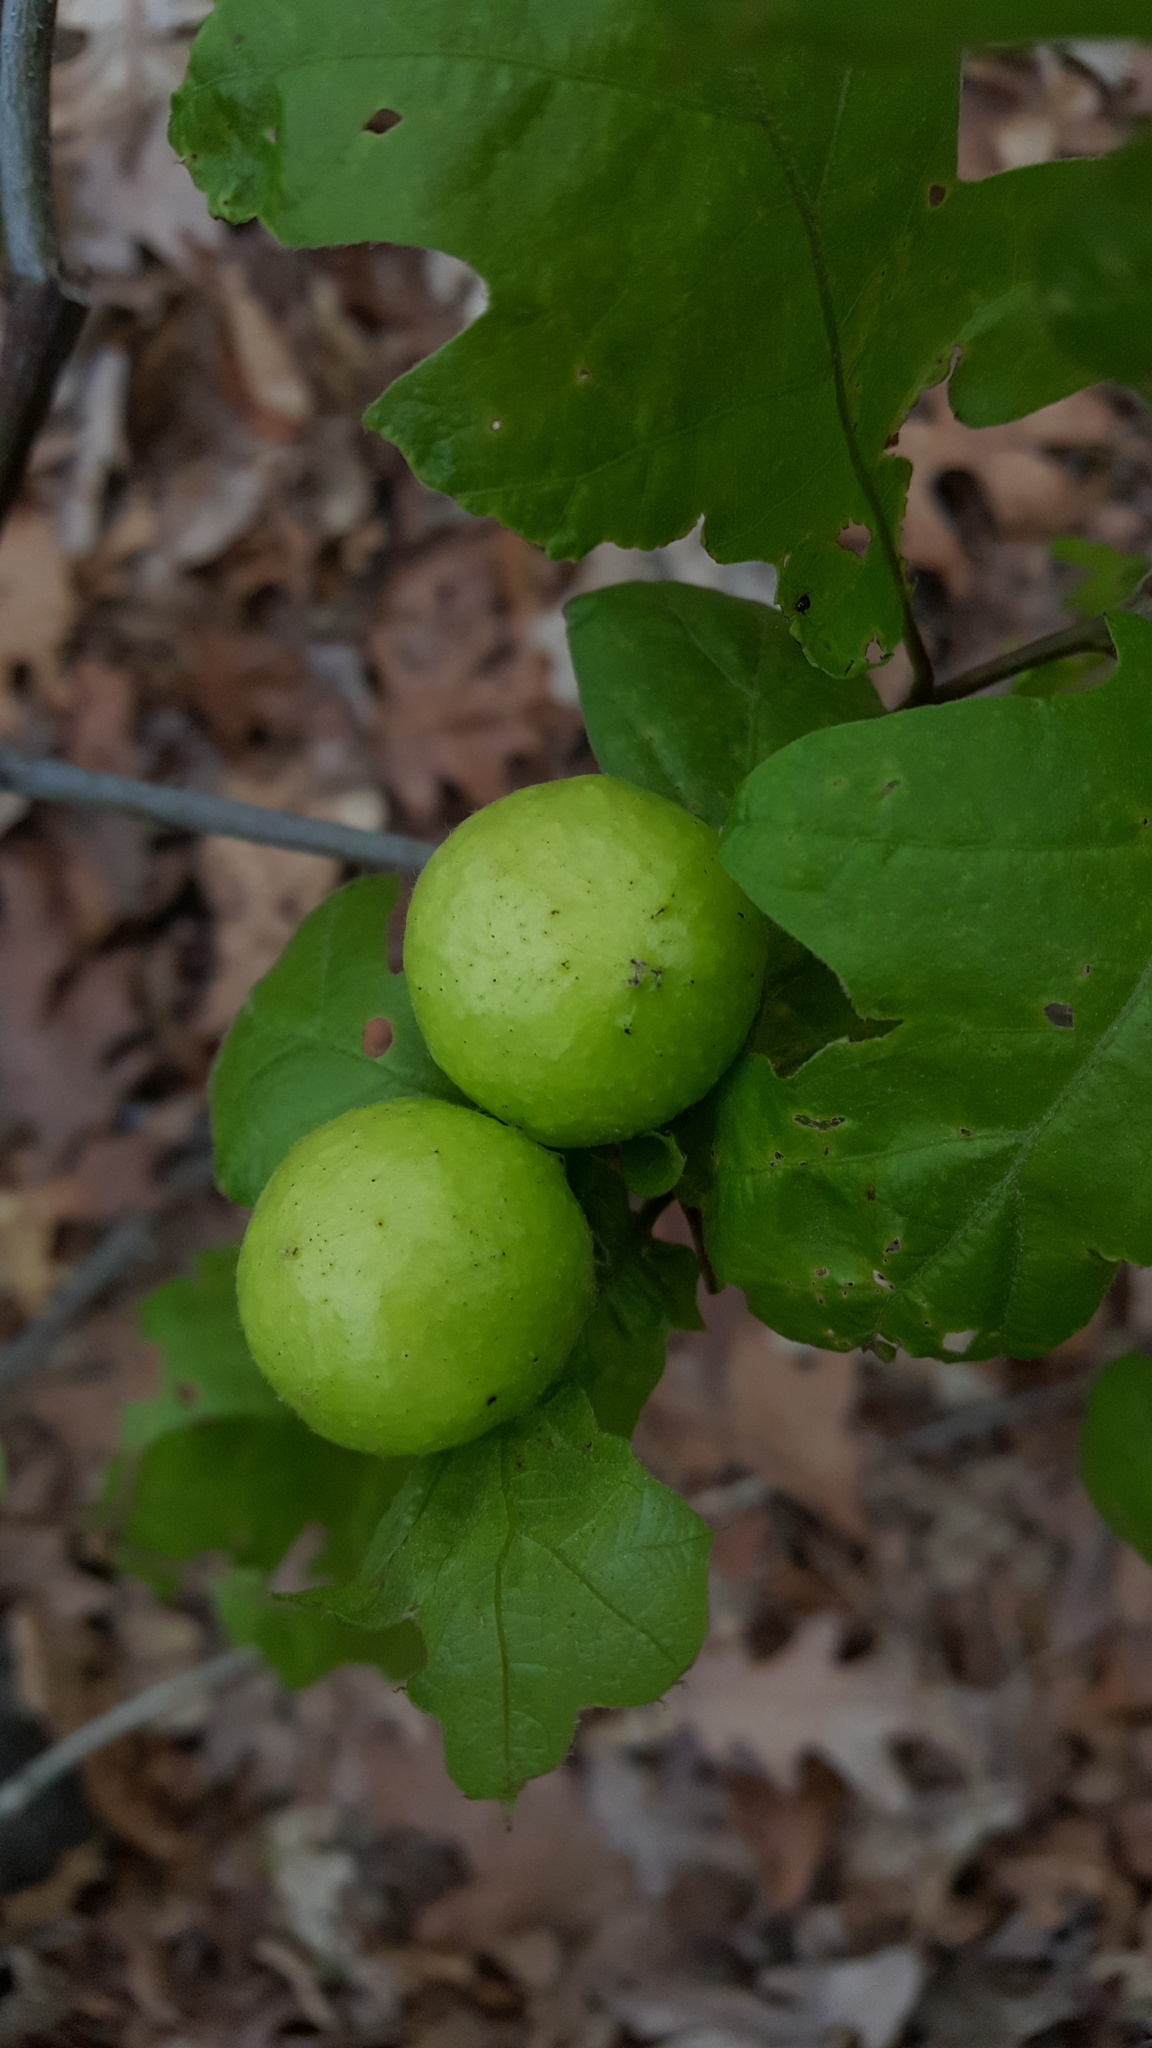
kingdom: Animalia
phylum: Arthropoda
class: Insecta
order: Hymenoptera
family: Cynipidae
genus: Amphibolips
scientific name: Amphibolips
